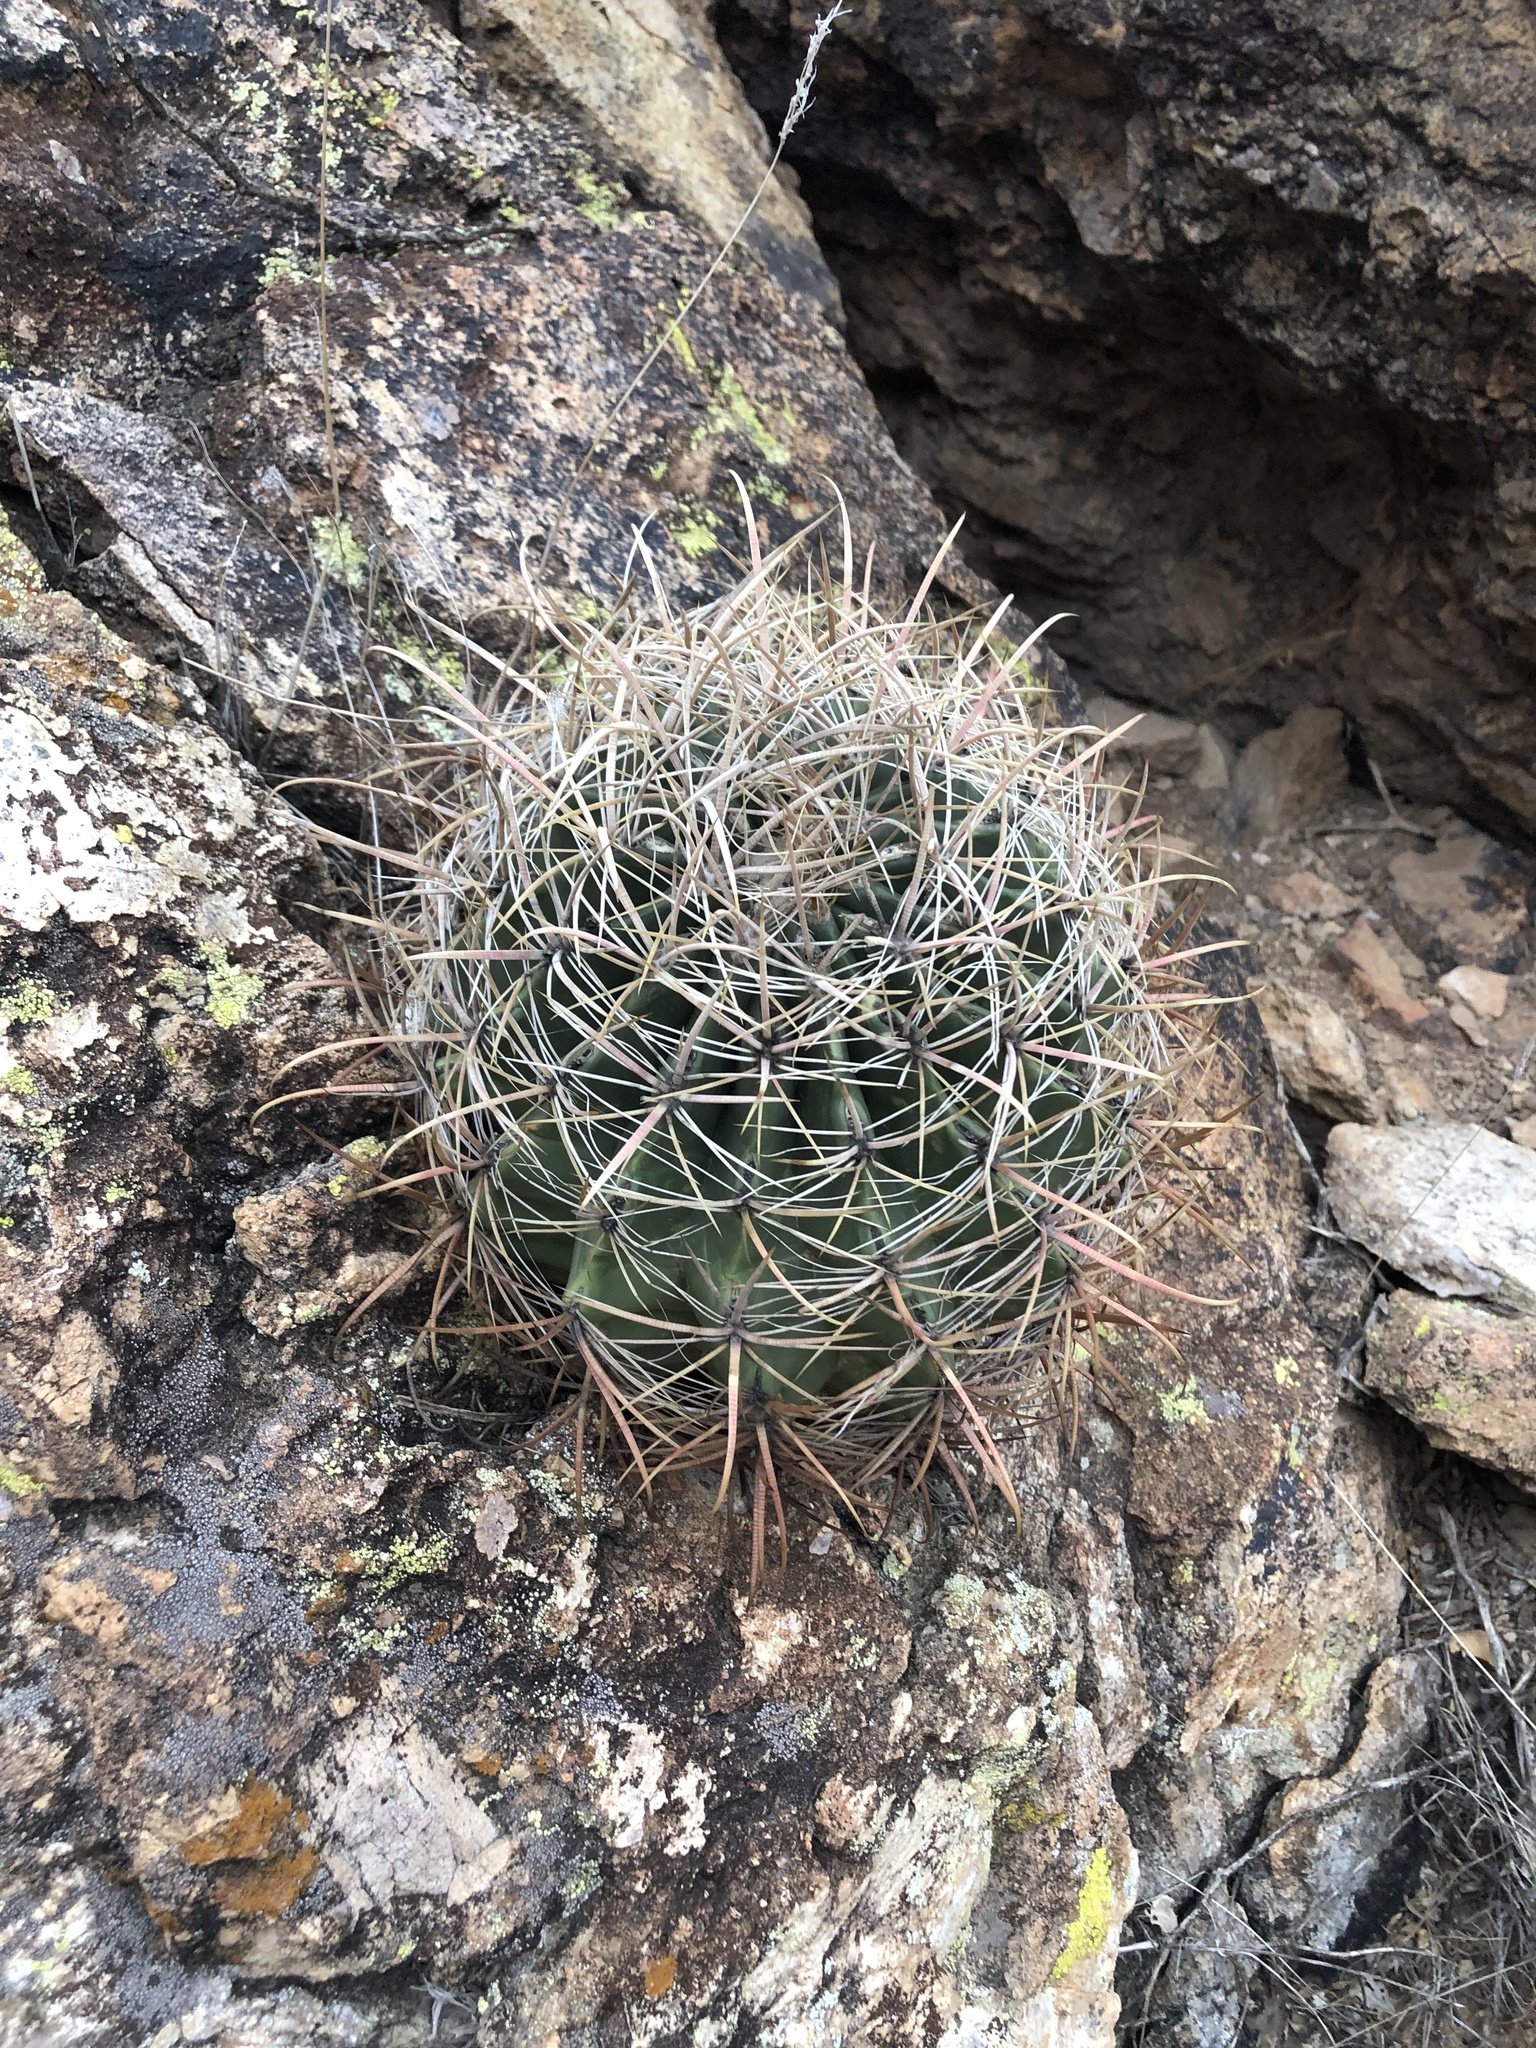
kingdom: Plantae
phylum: Tracheophyta
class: Magnoliopsida
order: Caryophyllales
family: Cactaceae
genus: Ferocactus
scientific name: Ferocactus cylindraceus
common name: California barrel cactus
